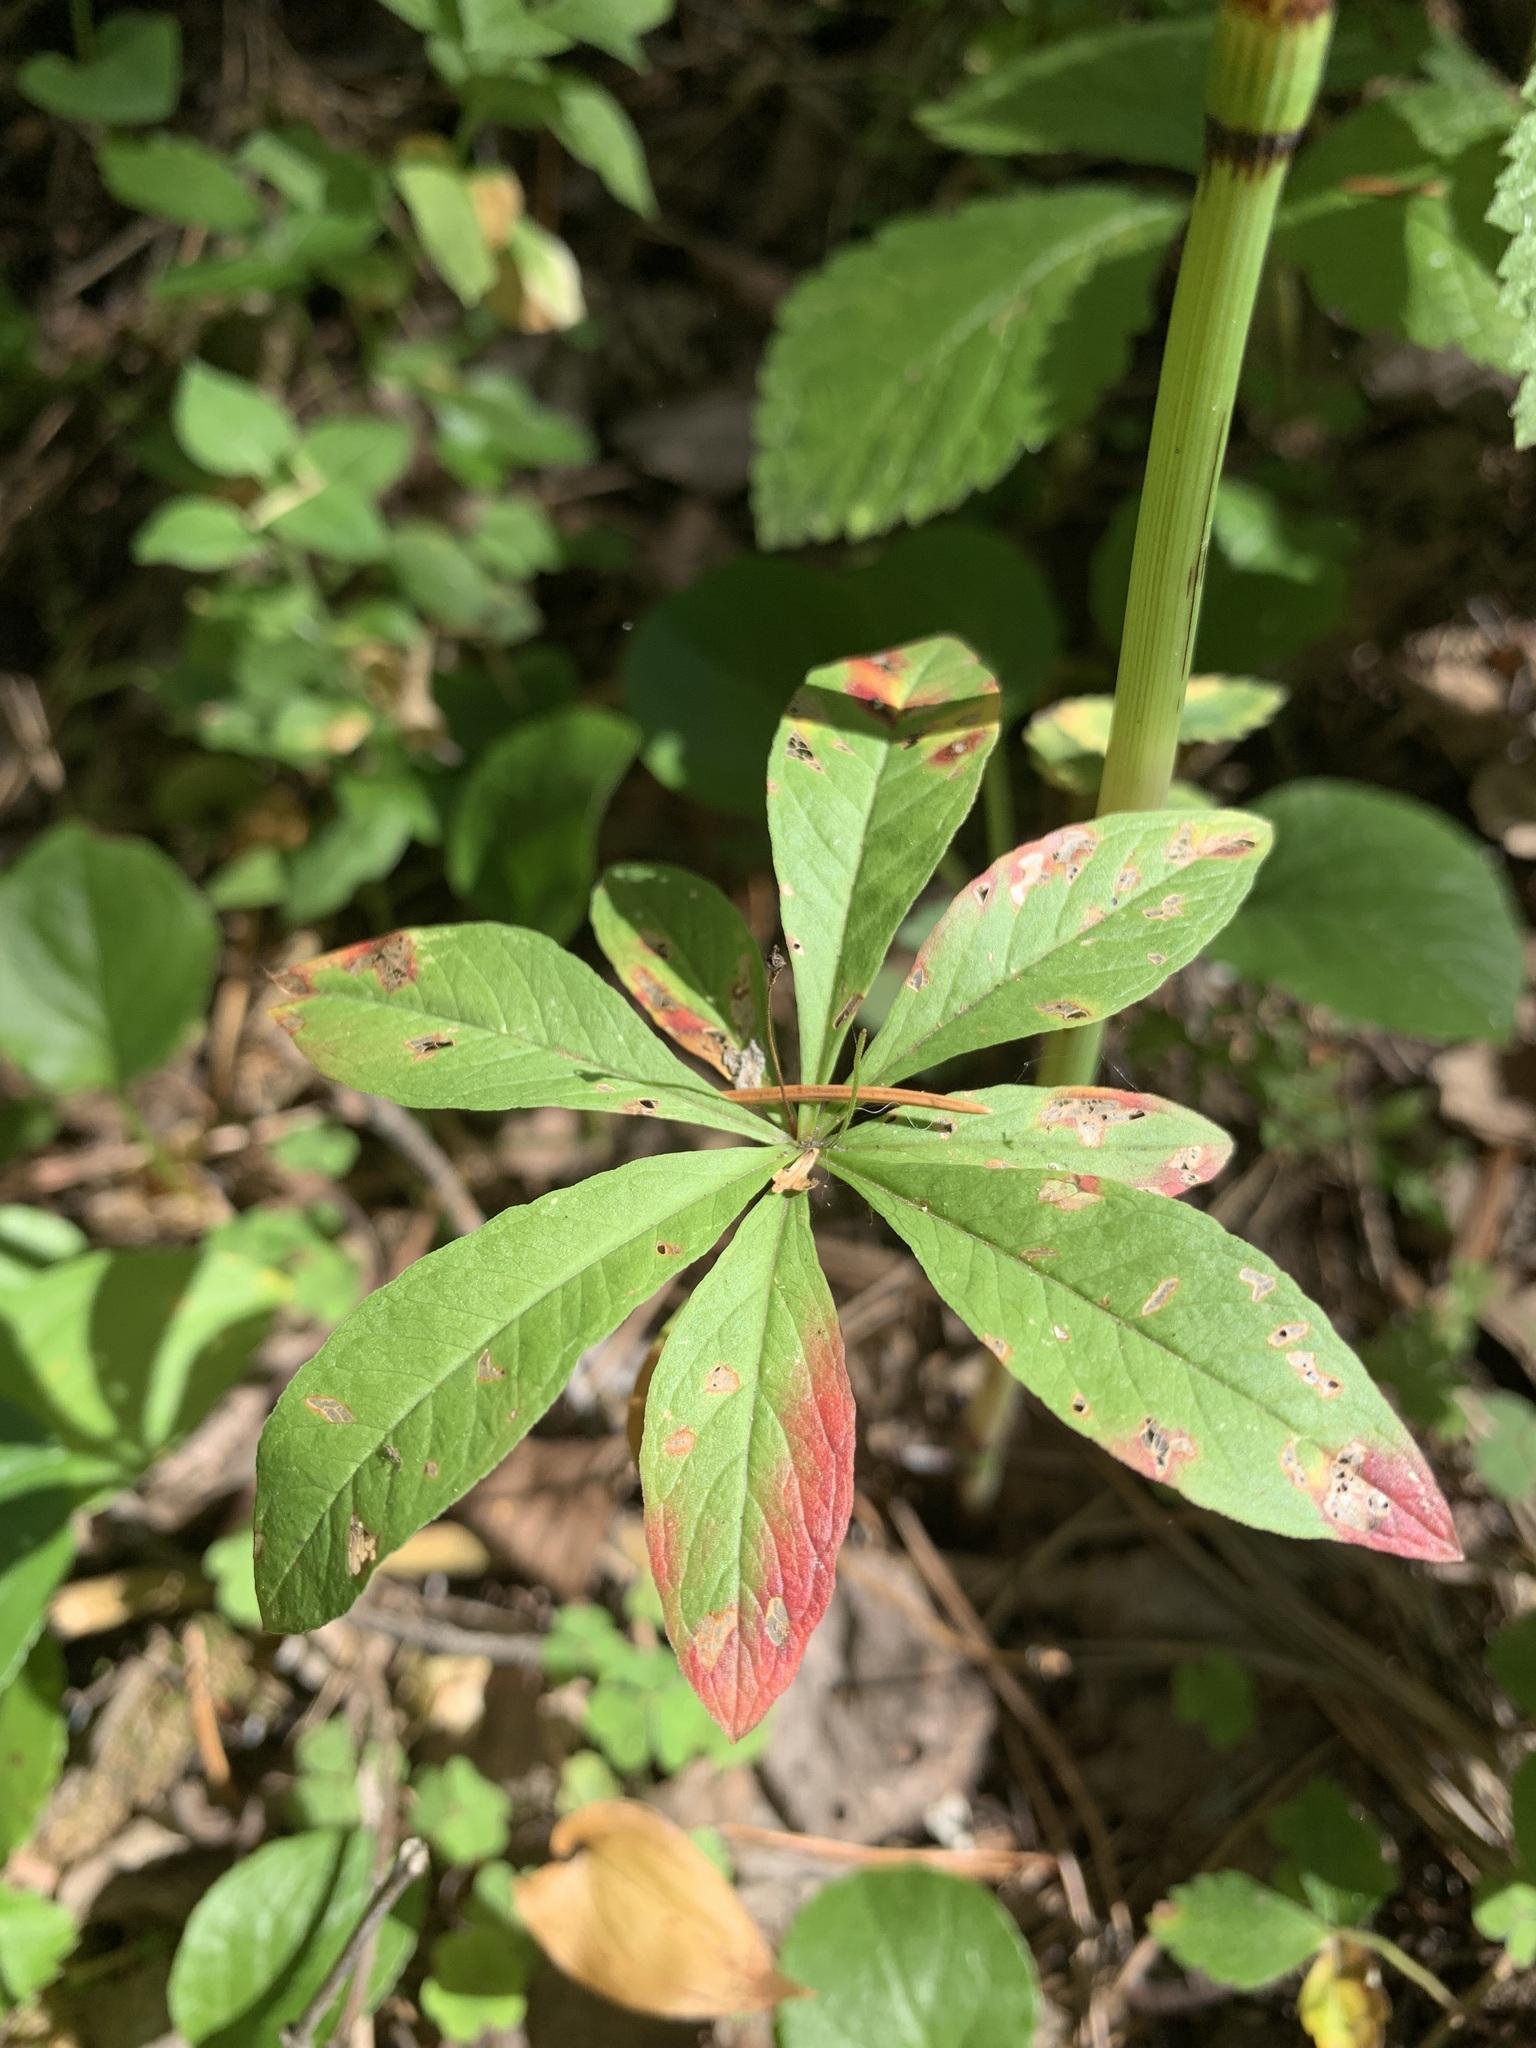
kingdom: Plantae
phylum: Tracheophyta
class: Magnoliopsida
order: Ericales
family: Primulaceae
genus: Lysimachia
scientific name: Lysimachia europaea
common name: Arctic starflower
